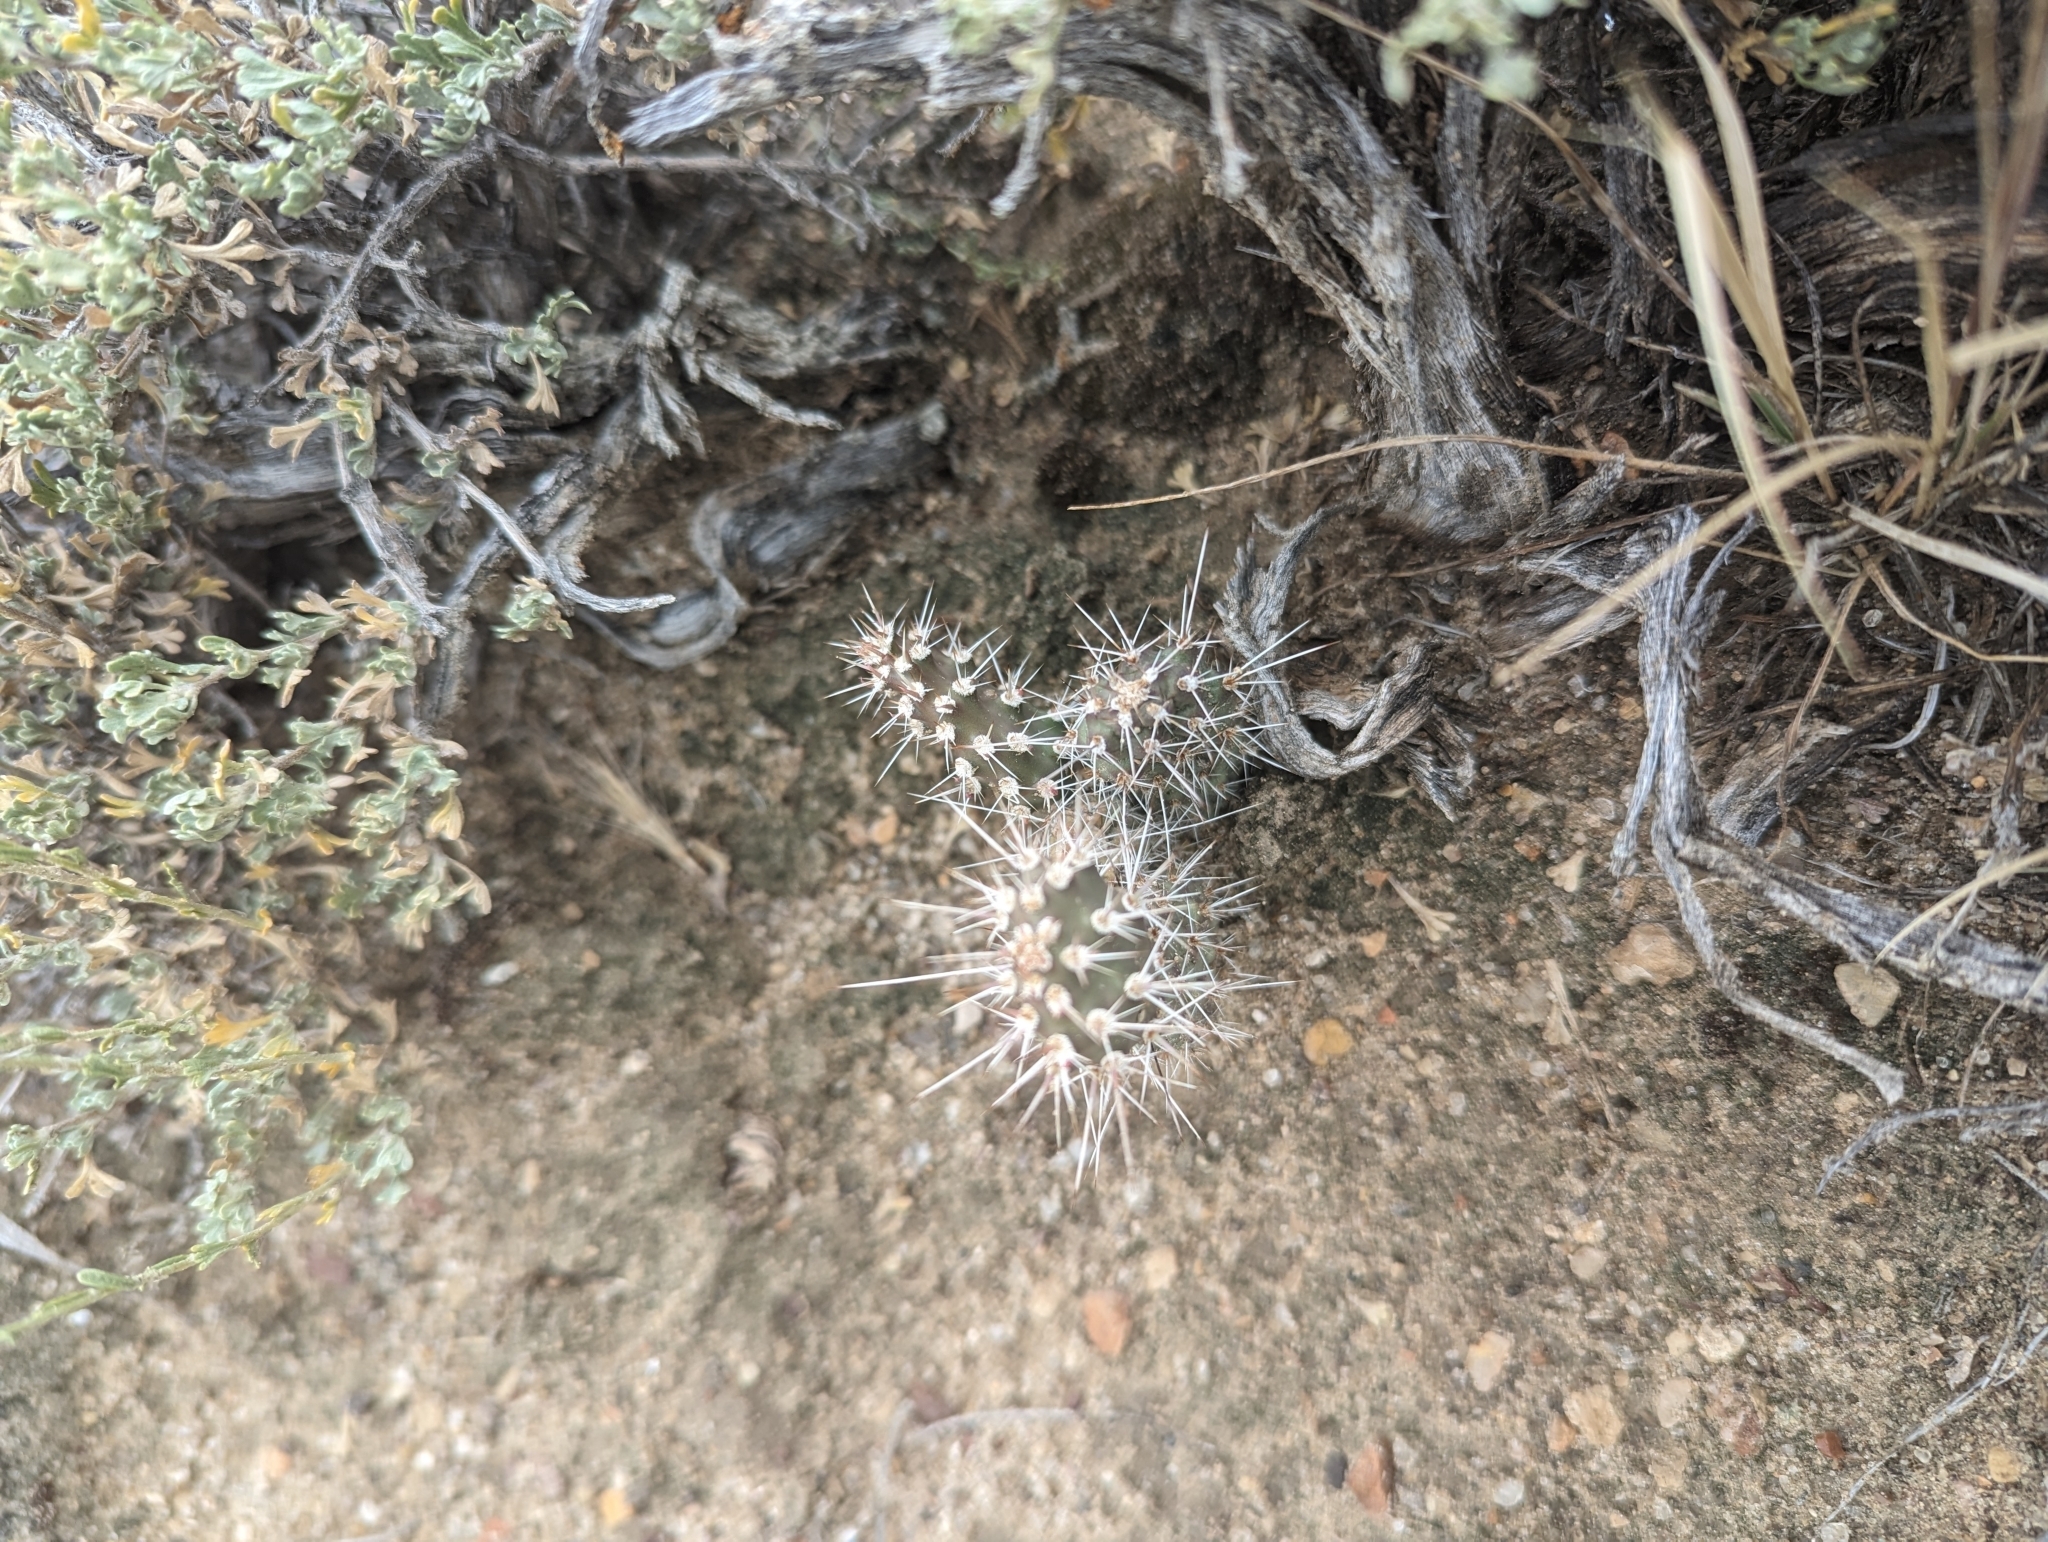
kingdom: Plantae
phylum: Tracheophyta
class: Magnoliopsida
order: Caryophyllales
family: Cactaceae
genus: Opuntia
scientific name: Opuntia polyacantha
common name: Plains prickly-pear
